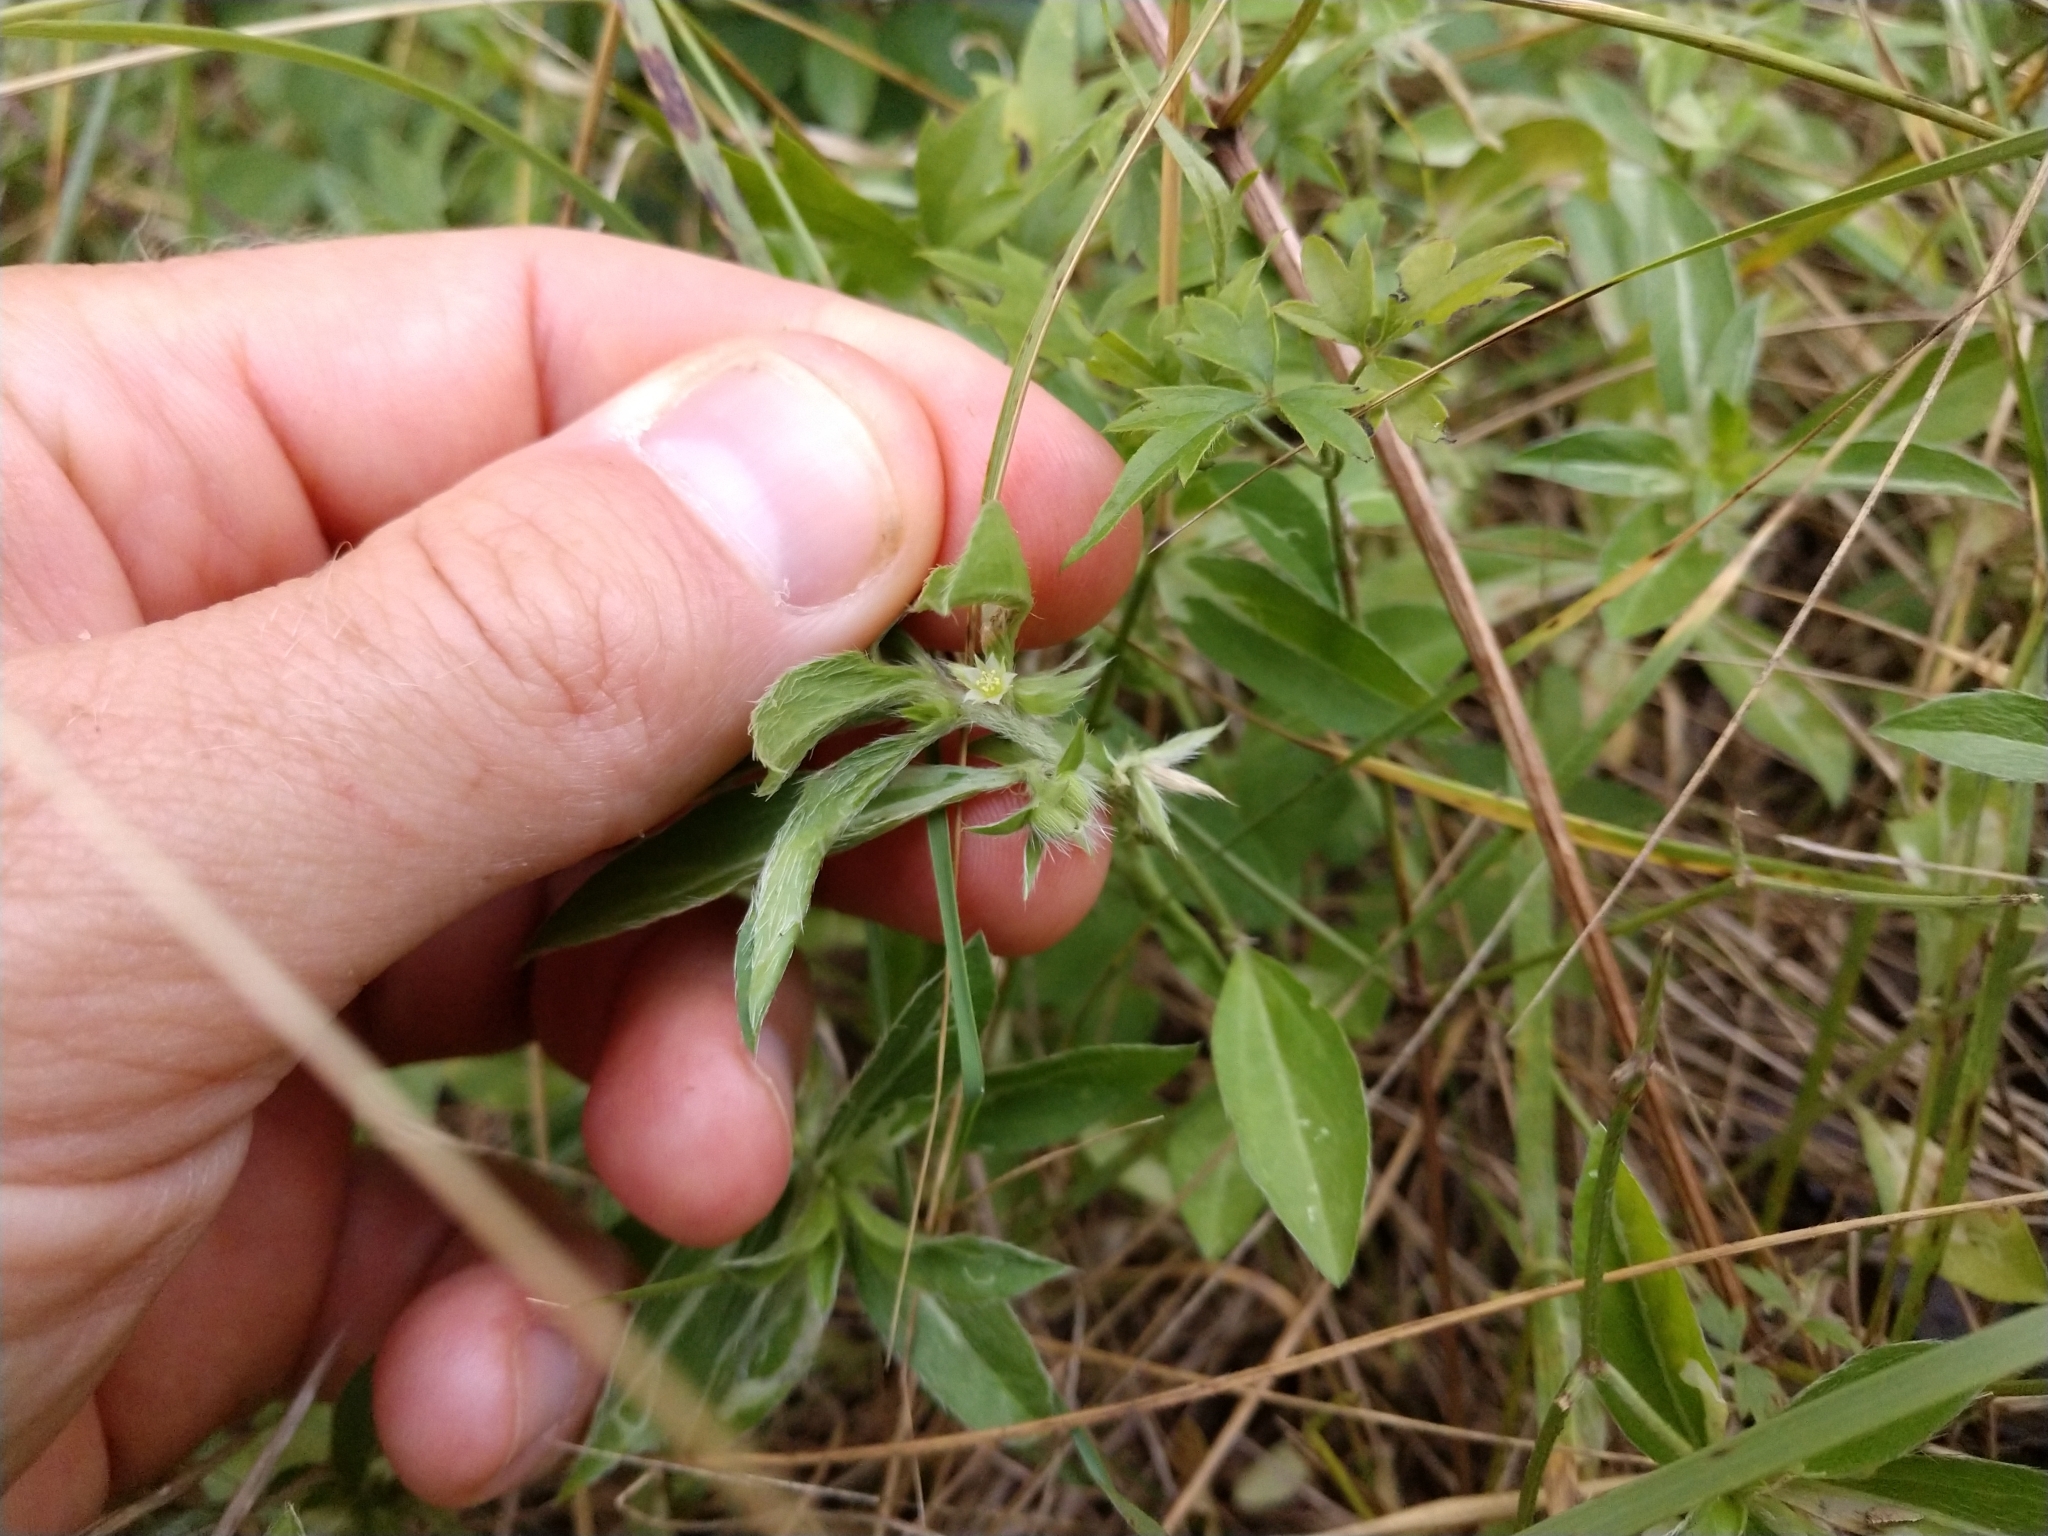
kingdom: Plantae
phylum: Tracheophyta
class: Magnoliopsida
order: Malpighiales
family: Euphorbiaceae
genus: Ditaxis
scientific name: Ditaxis serrata
